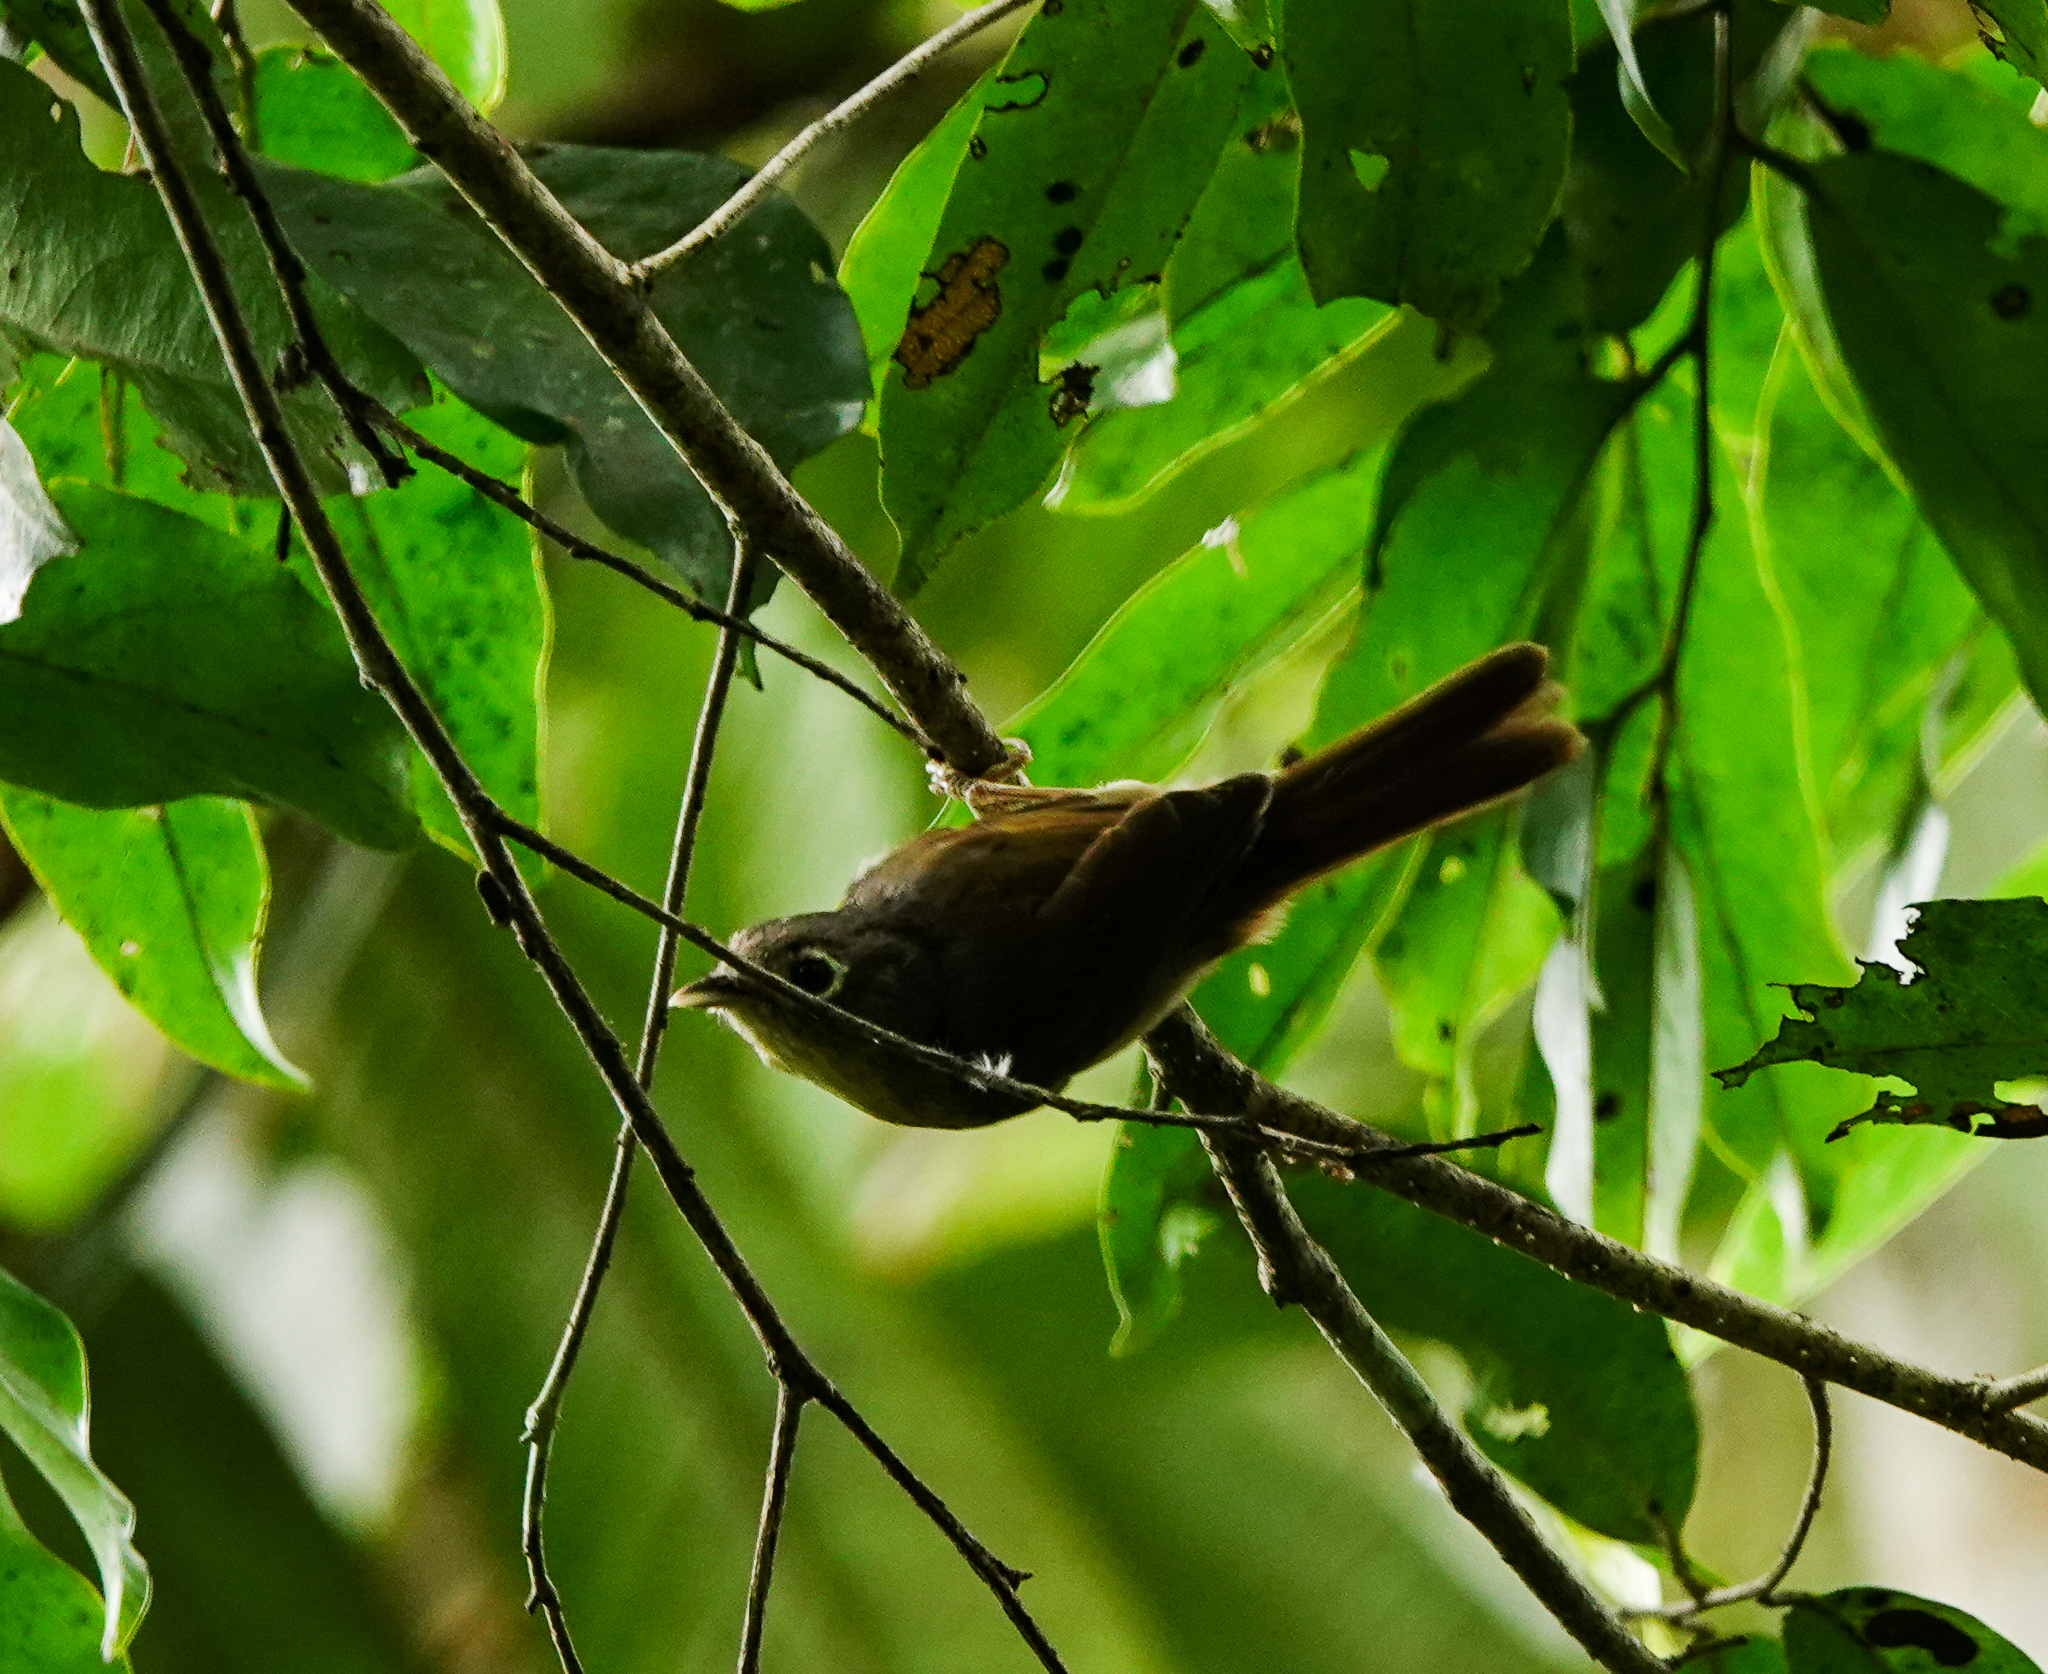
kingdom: Animalia
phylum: Chordata
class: Aves
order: Passeriformes
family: Pellorneidae
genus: Alcippe
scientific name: Alcippe nipalensis
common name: Nepal fulvetta
